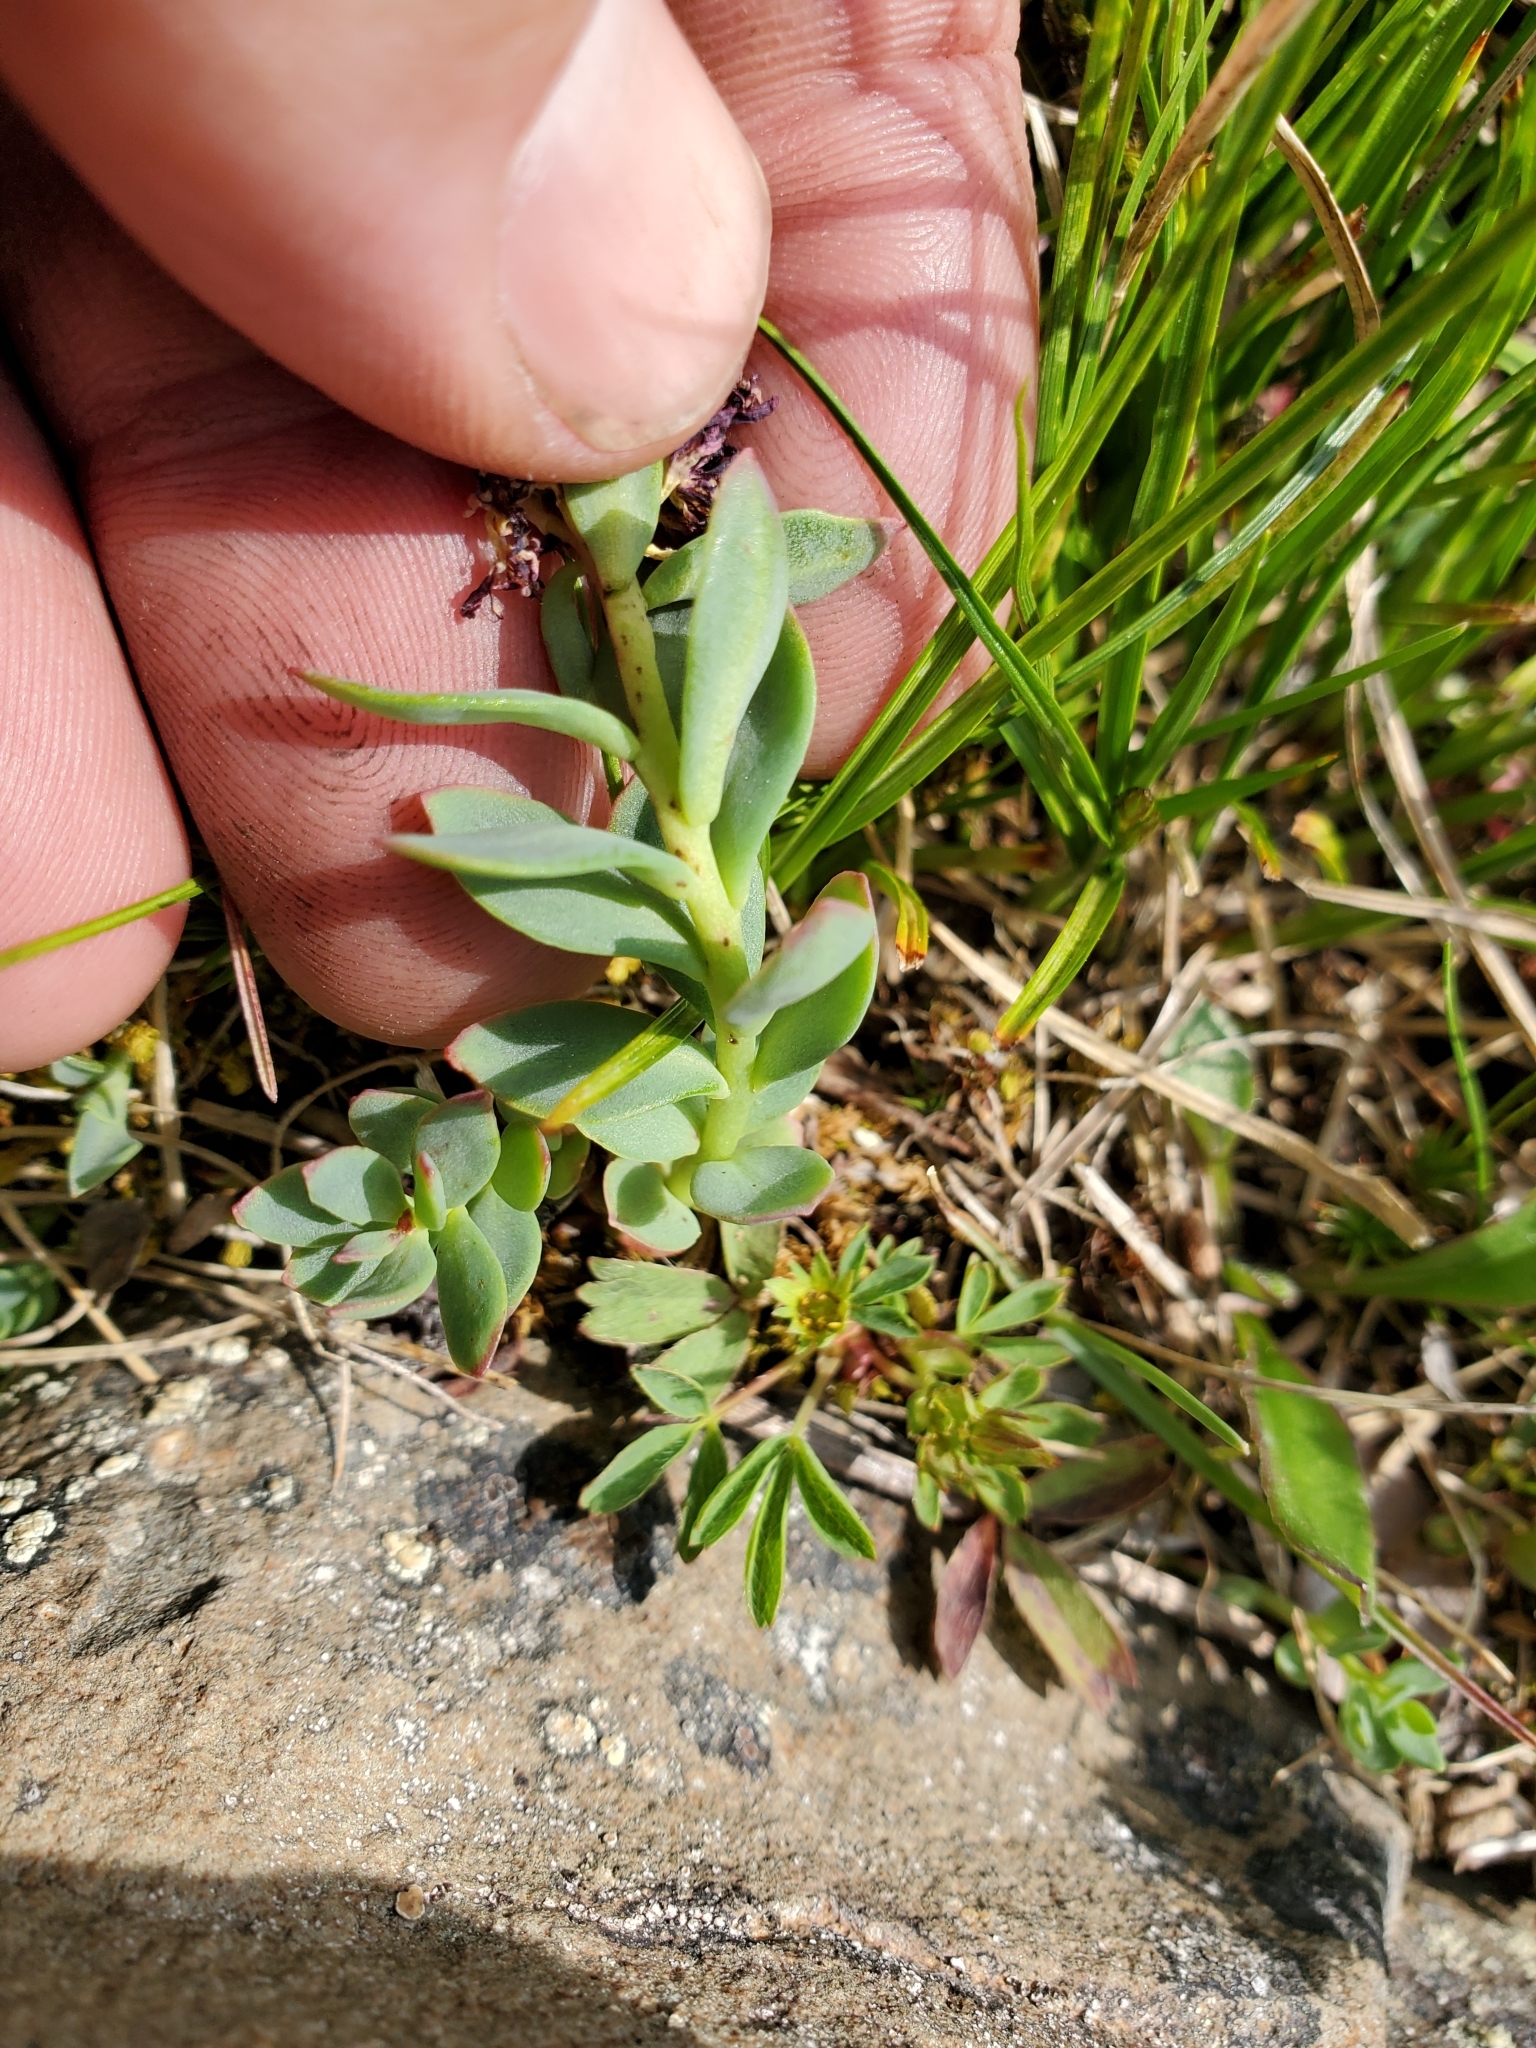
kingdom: Plantae
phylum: Tracheophyta
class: Magnoliopsida
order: Saxifragales
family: Crassulaceae
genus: Rhodiola
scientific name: Rhodiola integrifolia
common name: Western roseroot
